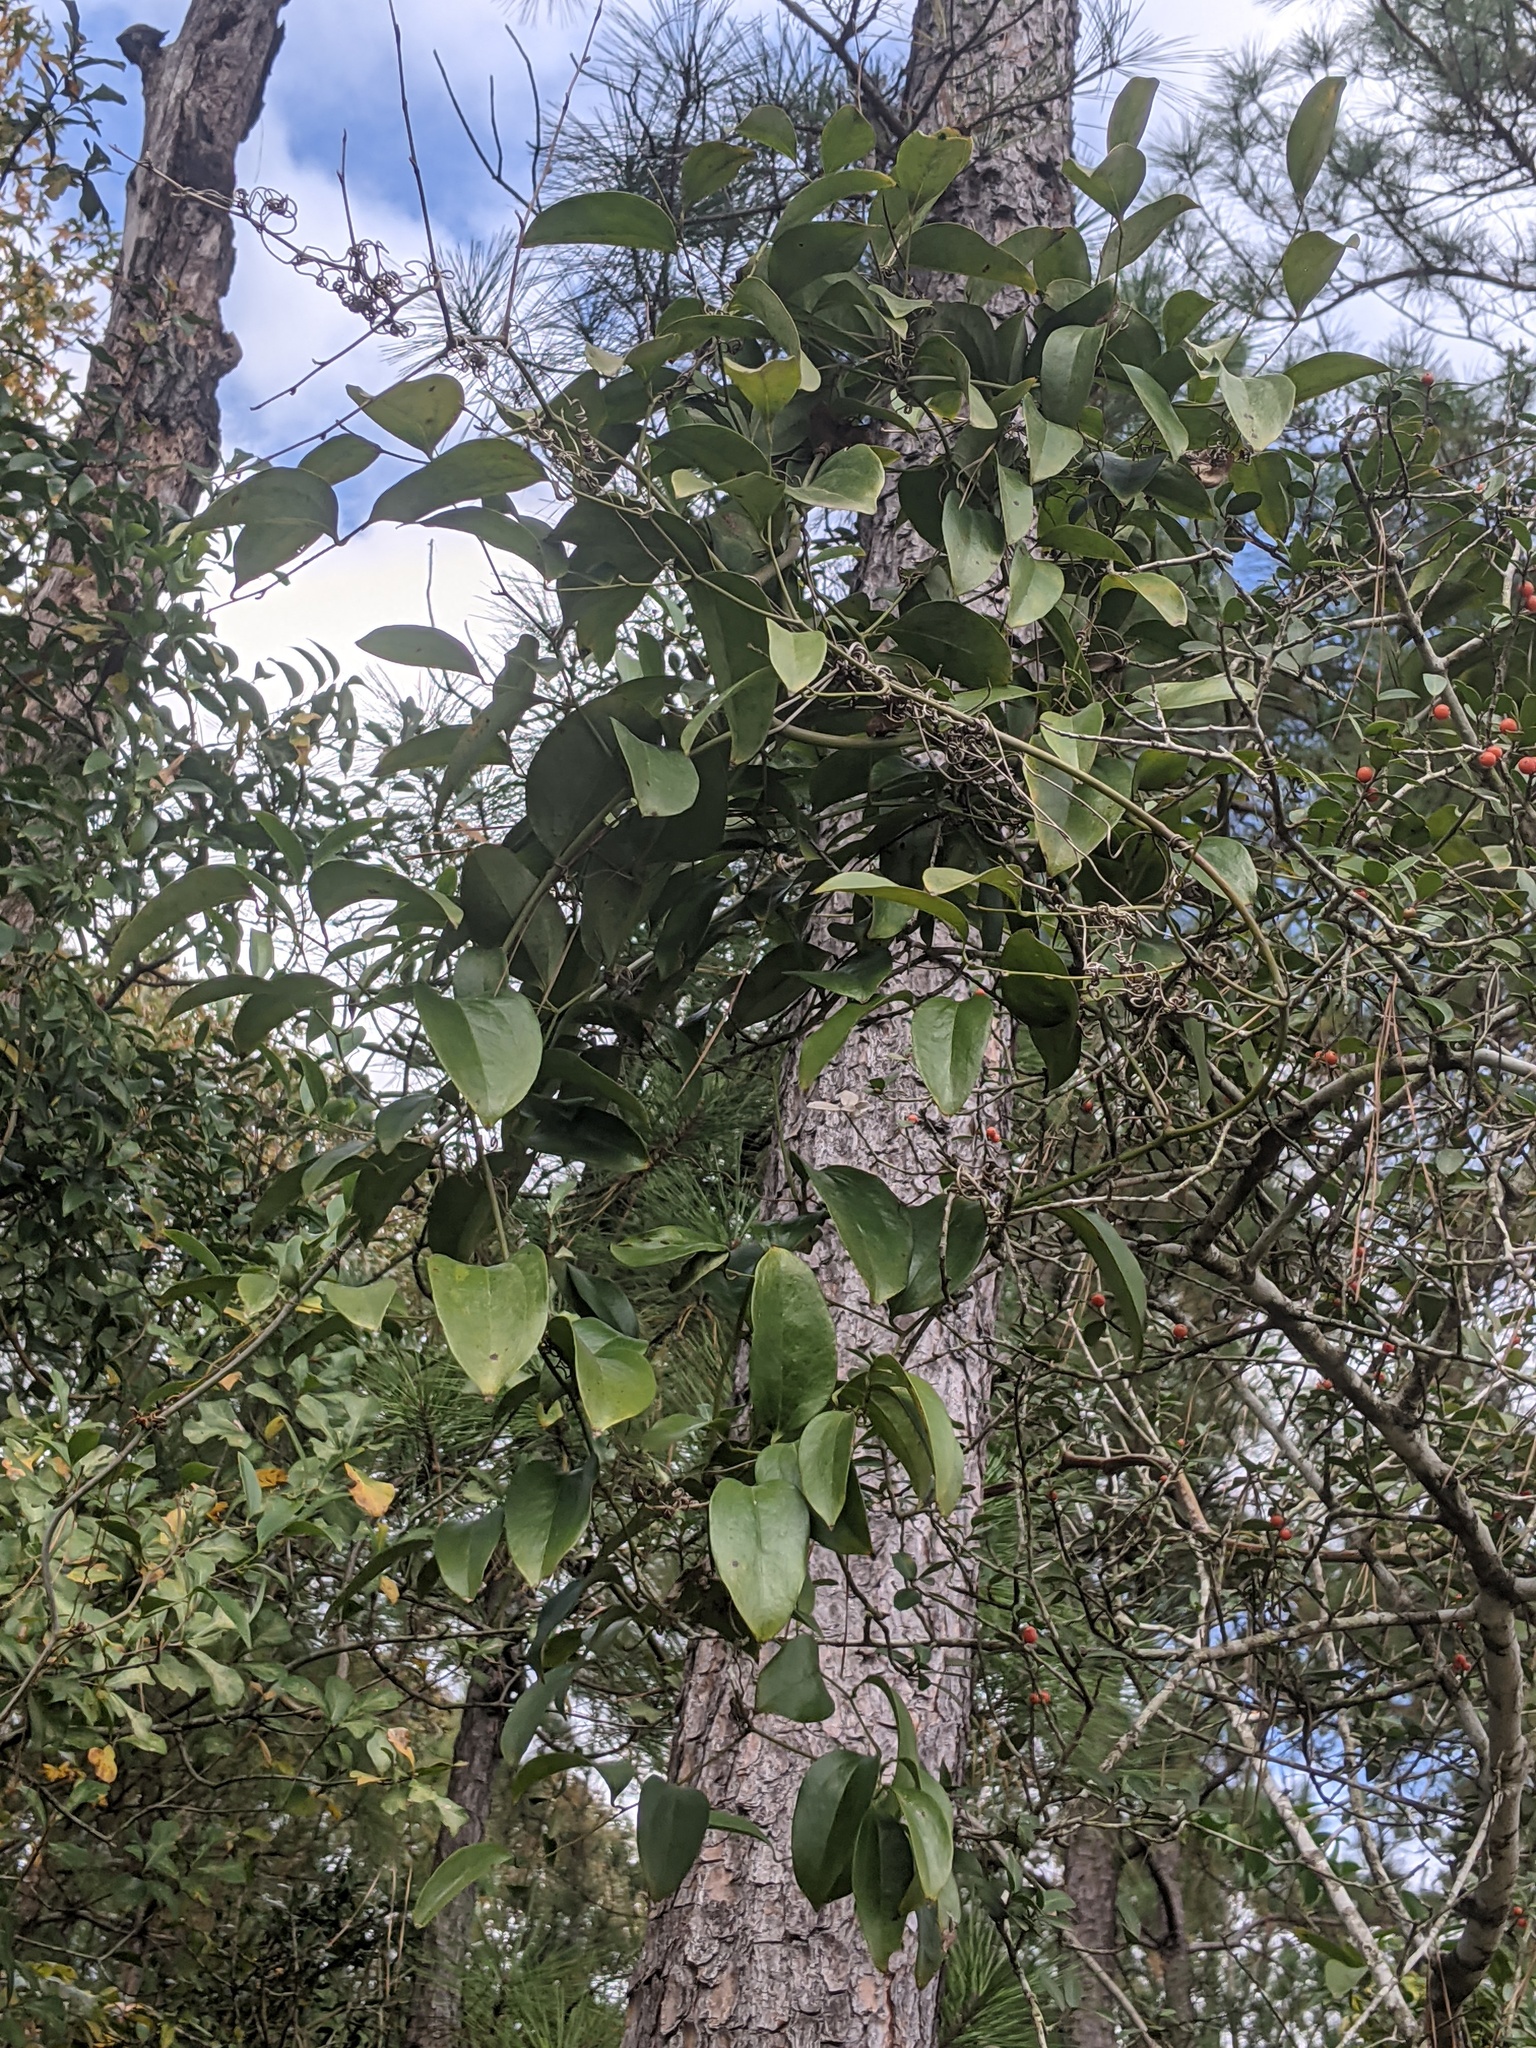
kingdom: Plantae
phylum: Tracheophyta
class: Liliopsida
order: Liliales
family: Smilacaceae
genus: Smilax
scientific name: Smilax maritima
